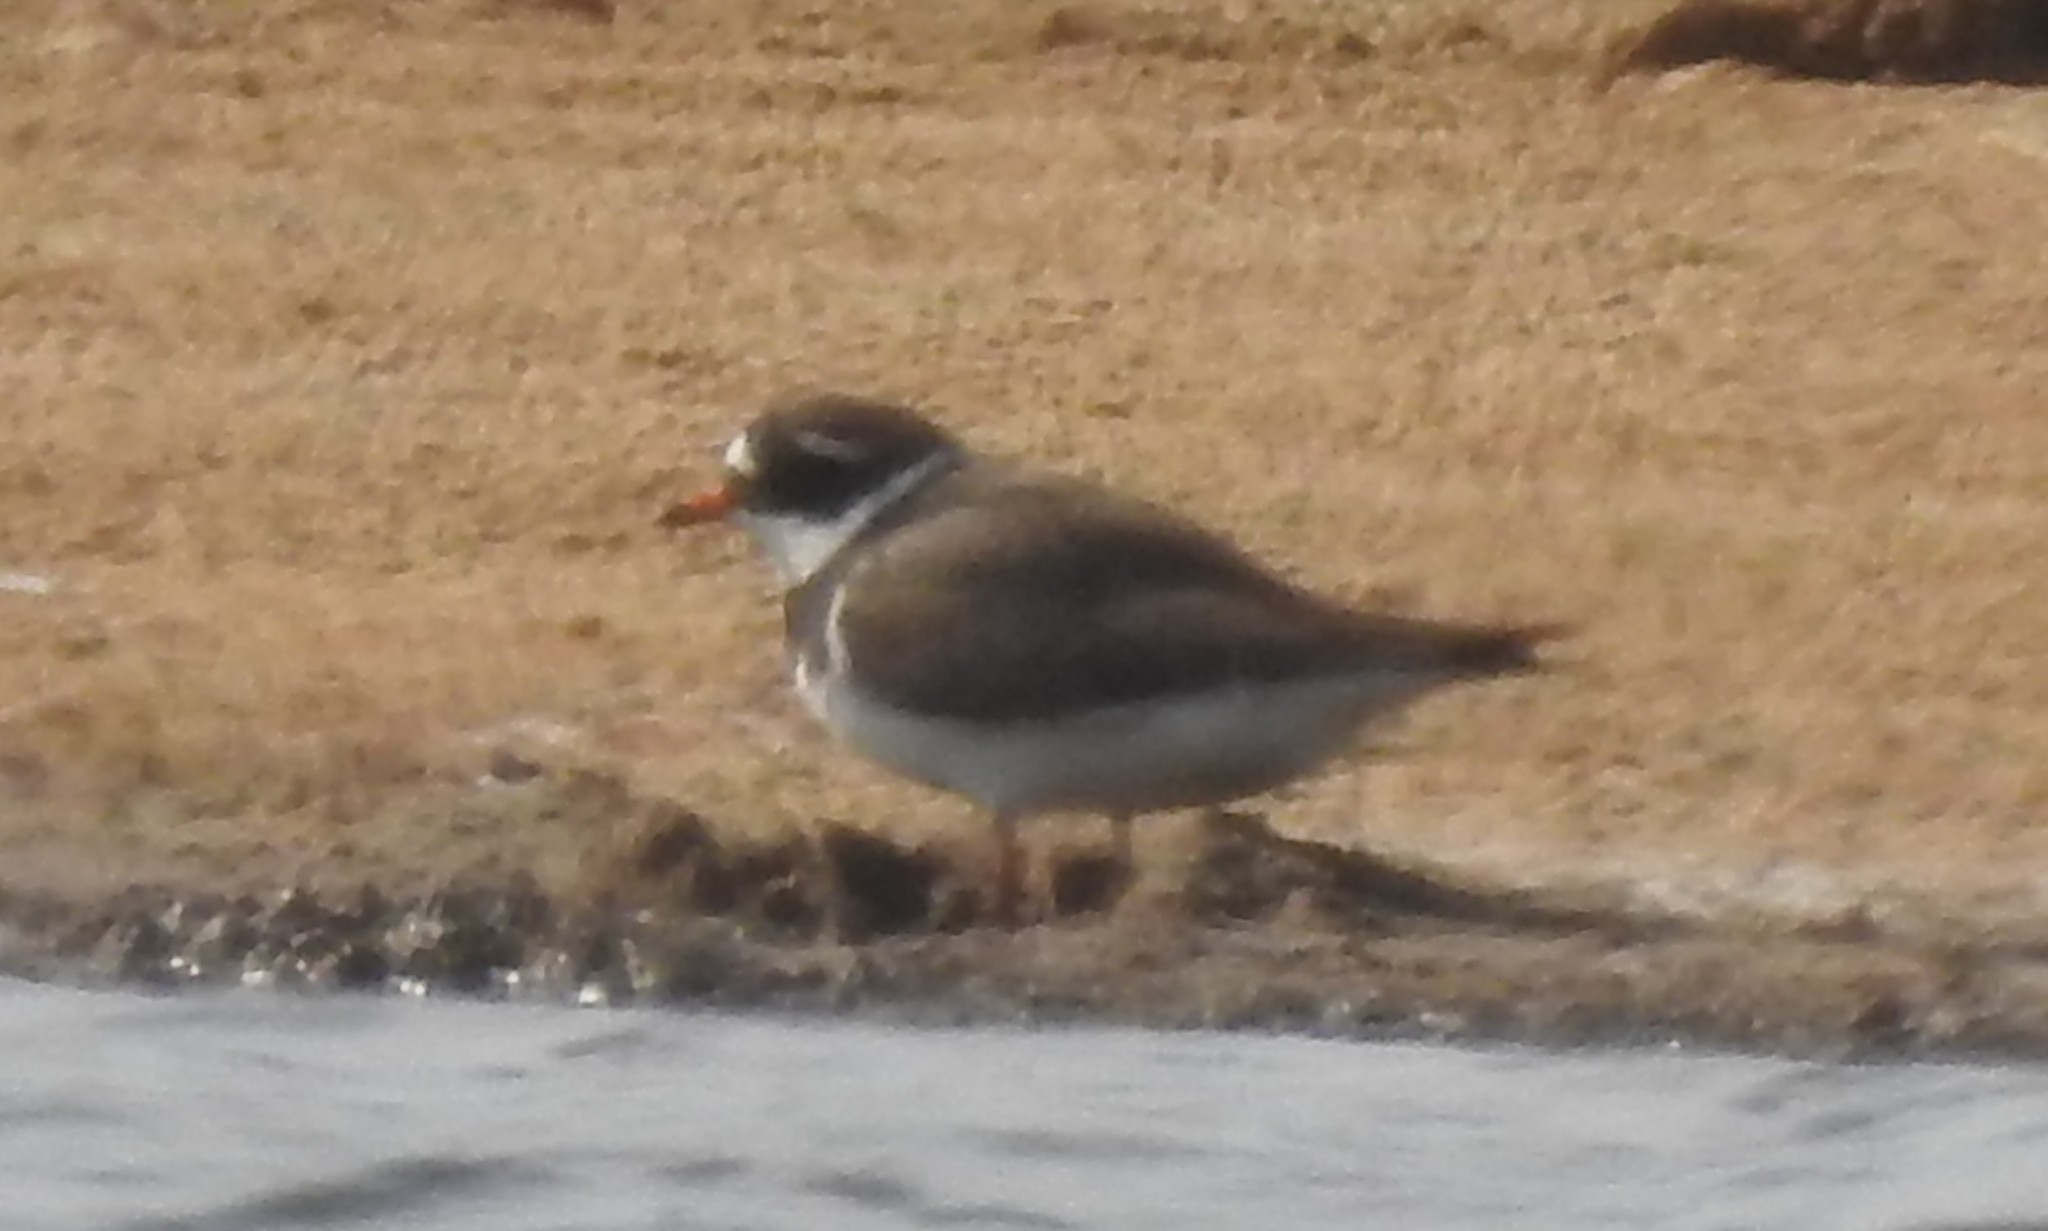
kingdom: Animalia
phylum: Chordata
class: Aves
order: Charadriiformes
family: Charadriidae
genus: Charadrius
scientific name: Charadrius hiaticula
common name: Common ringed plover
